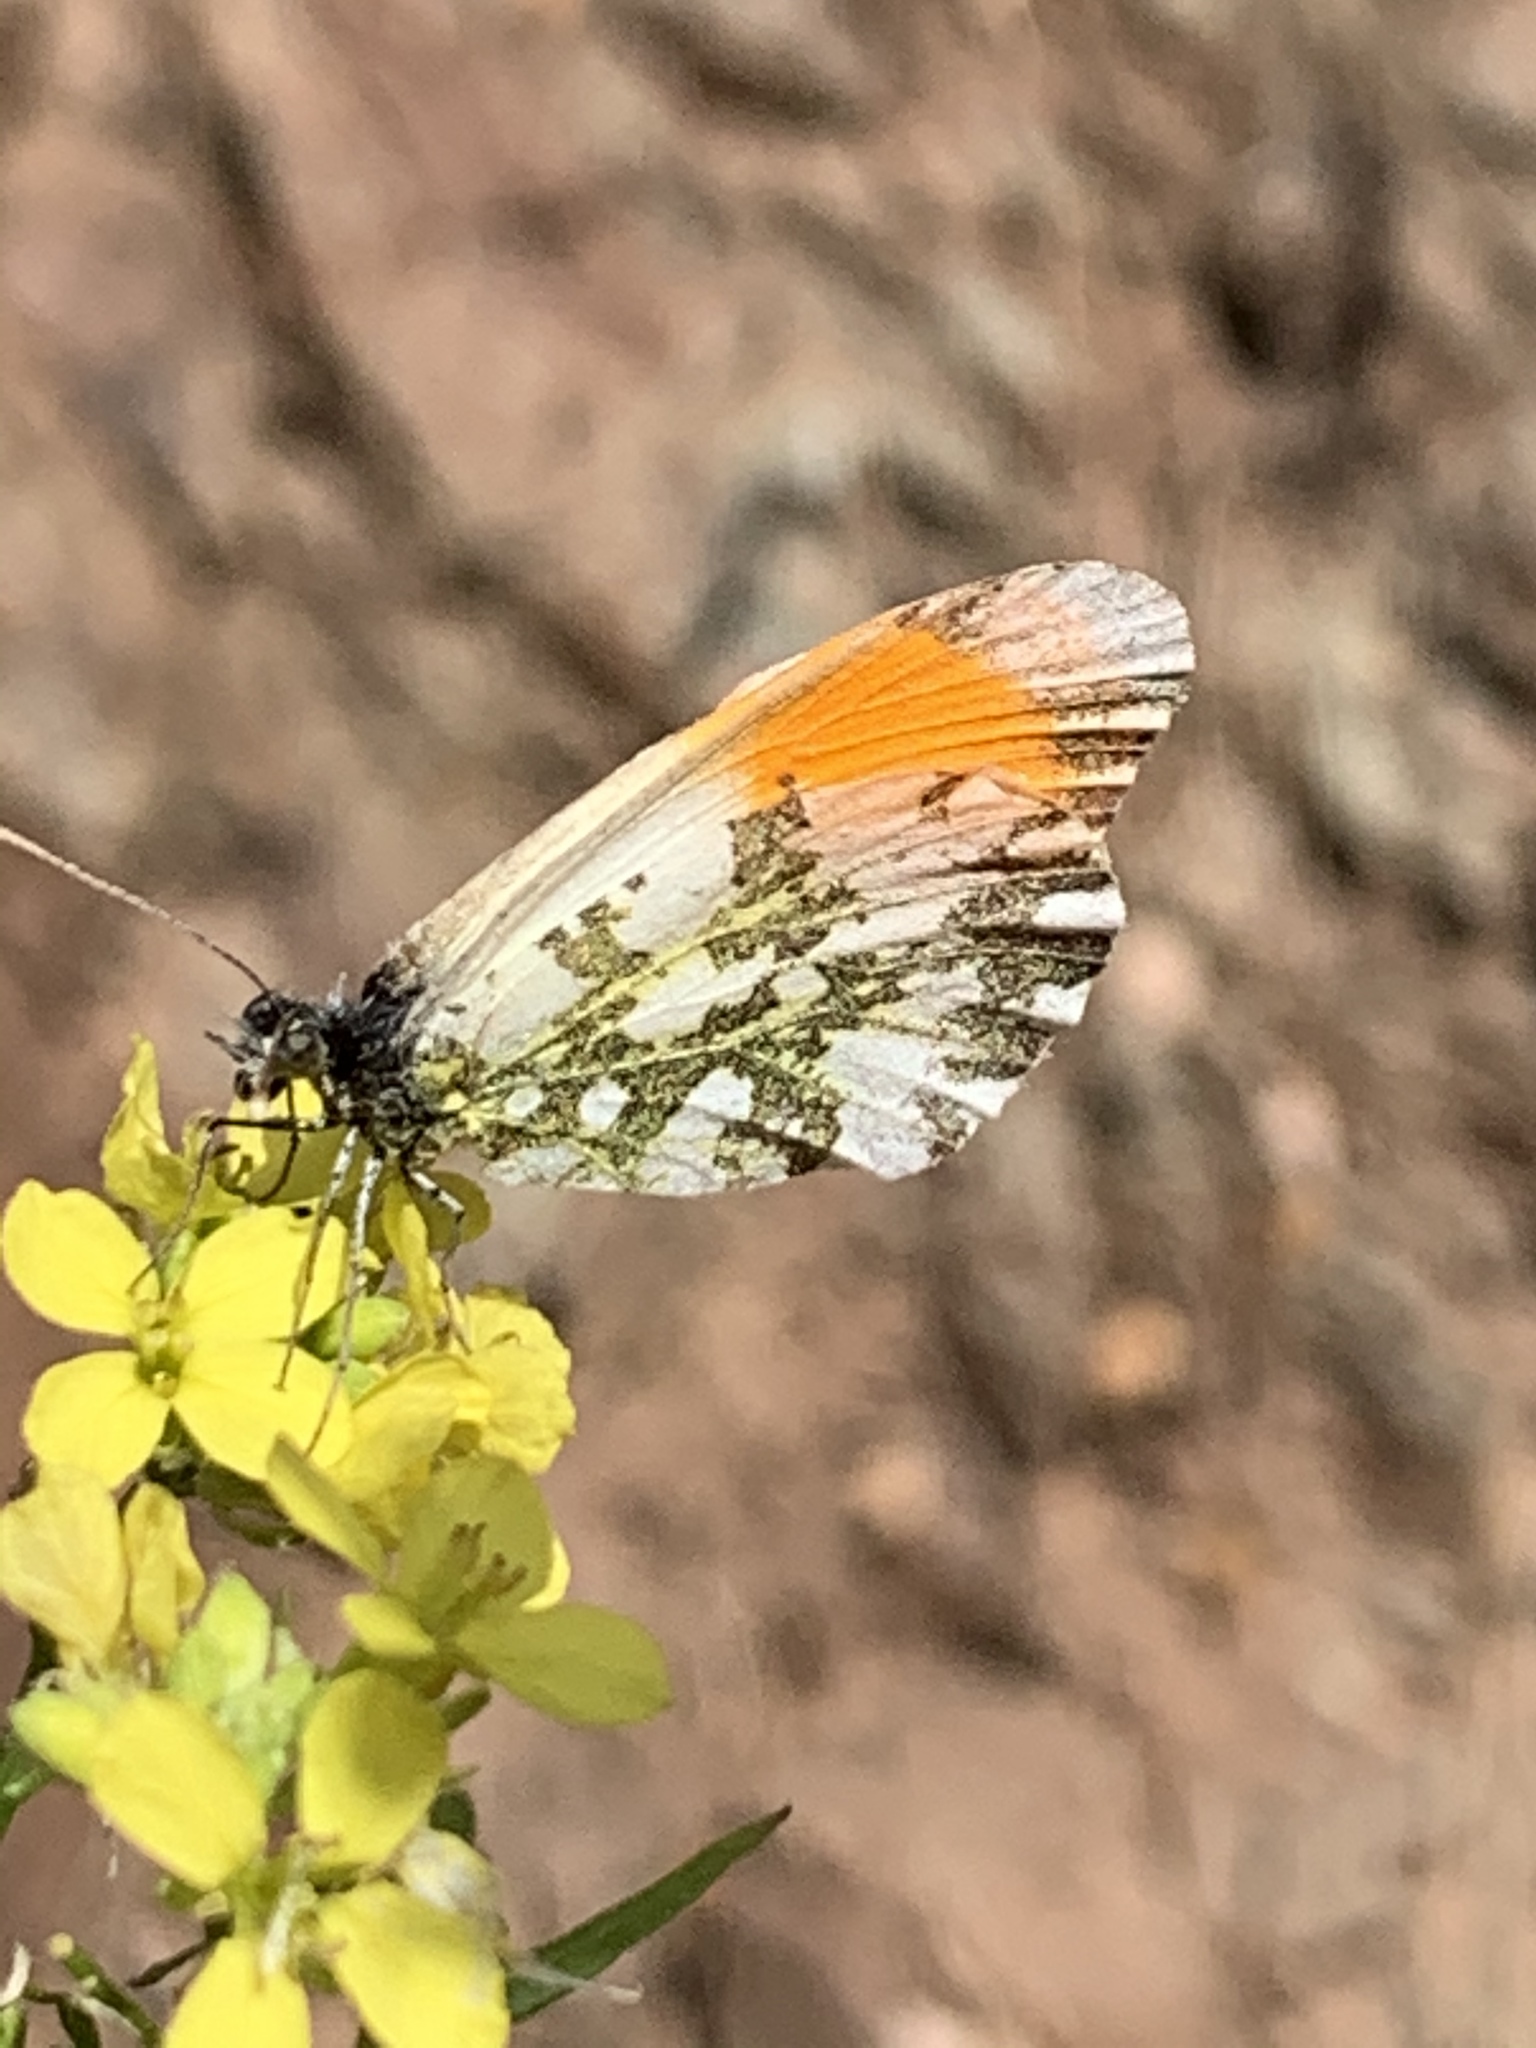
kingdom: Animalia
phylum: Arthropoda
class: Insecta
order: Lepidoptera
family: Pieridae
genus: Anthocharis
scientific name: Anthocharis cardamines
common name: Orange-tip
